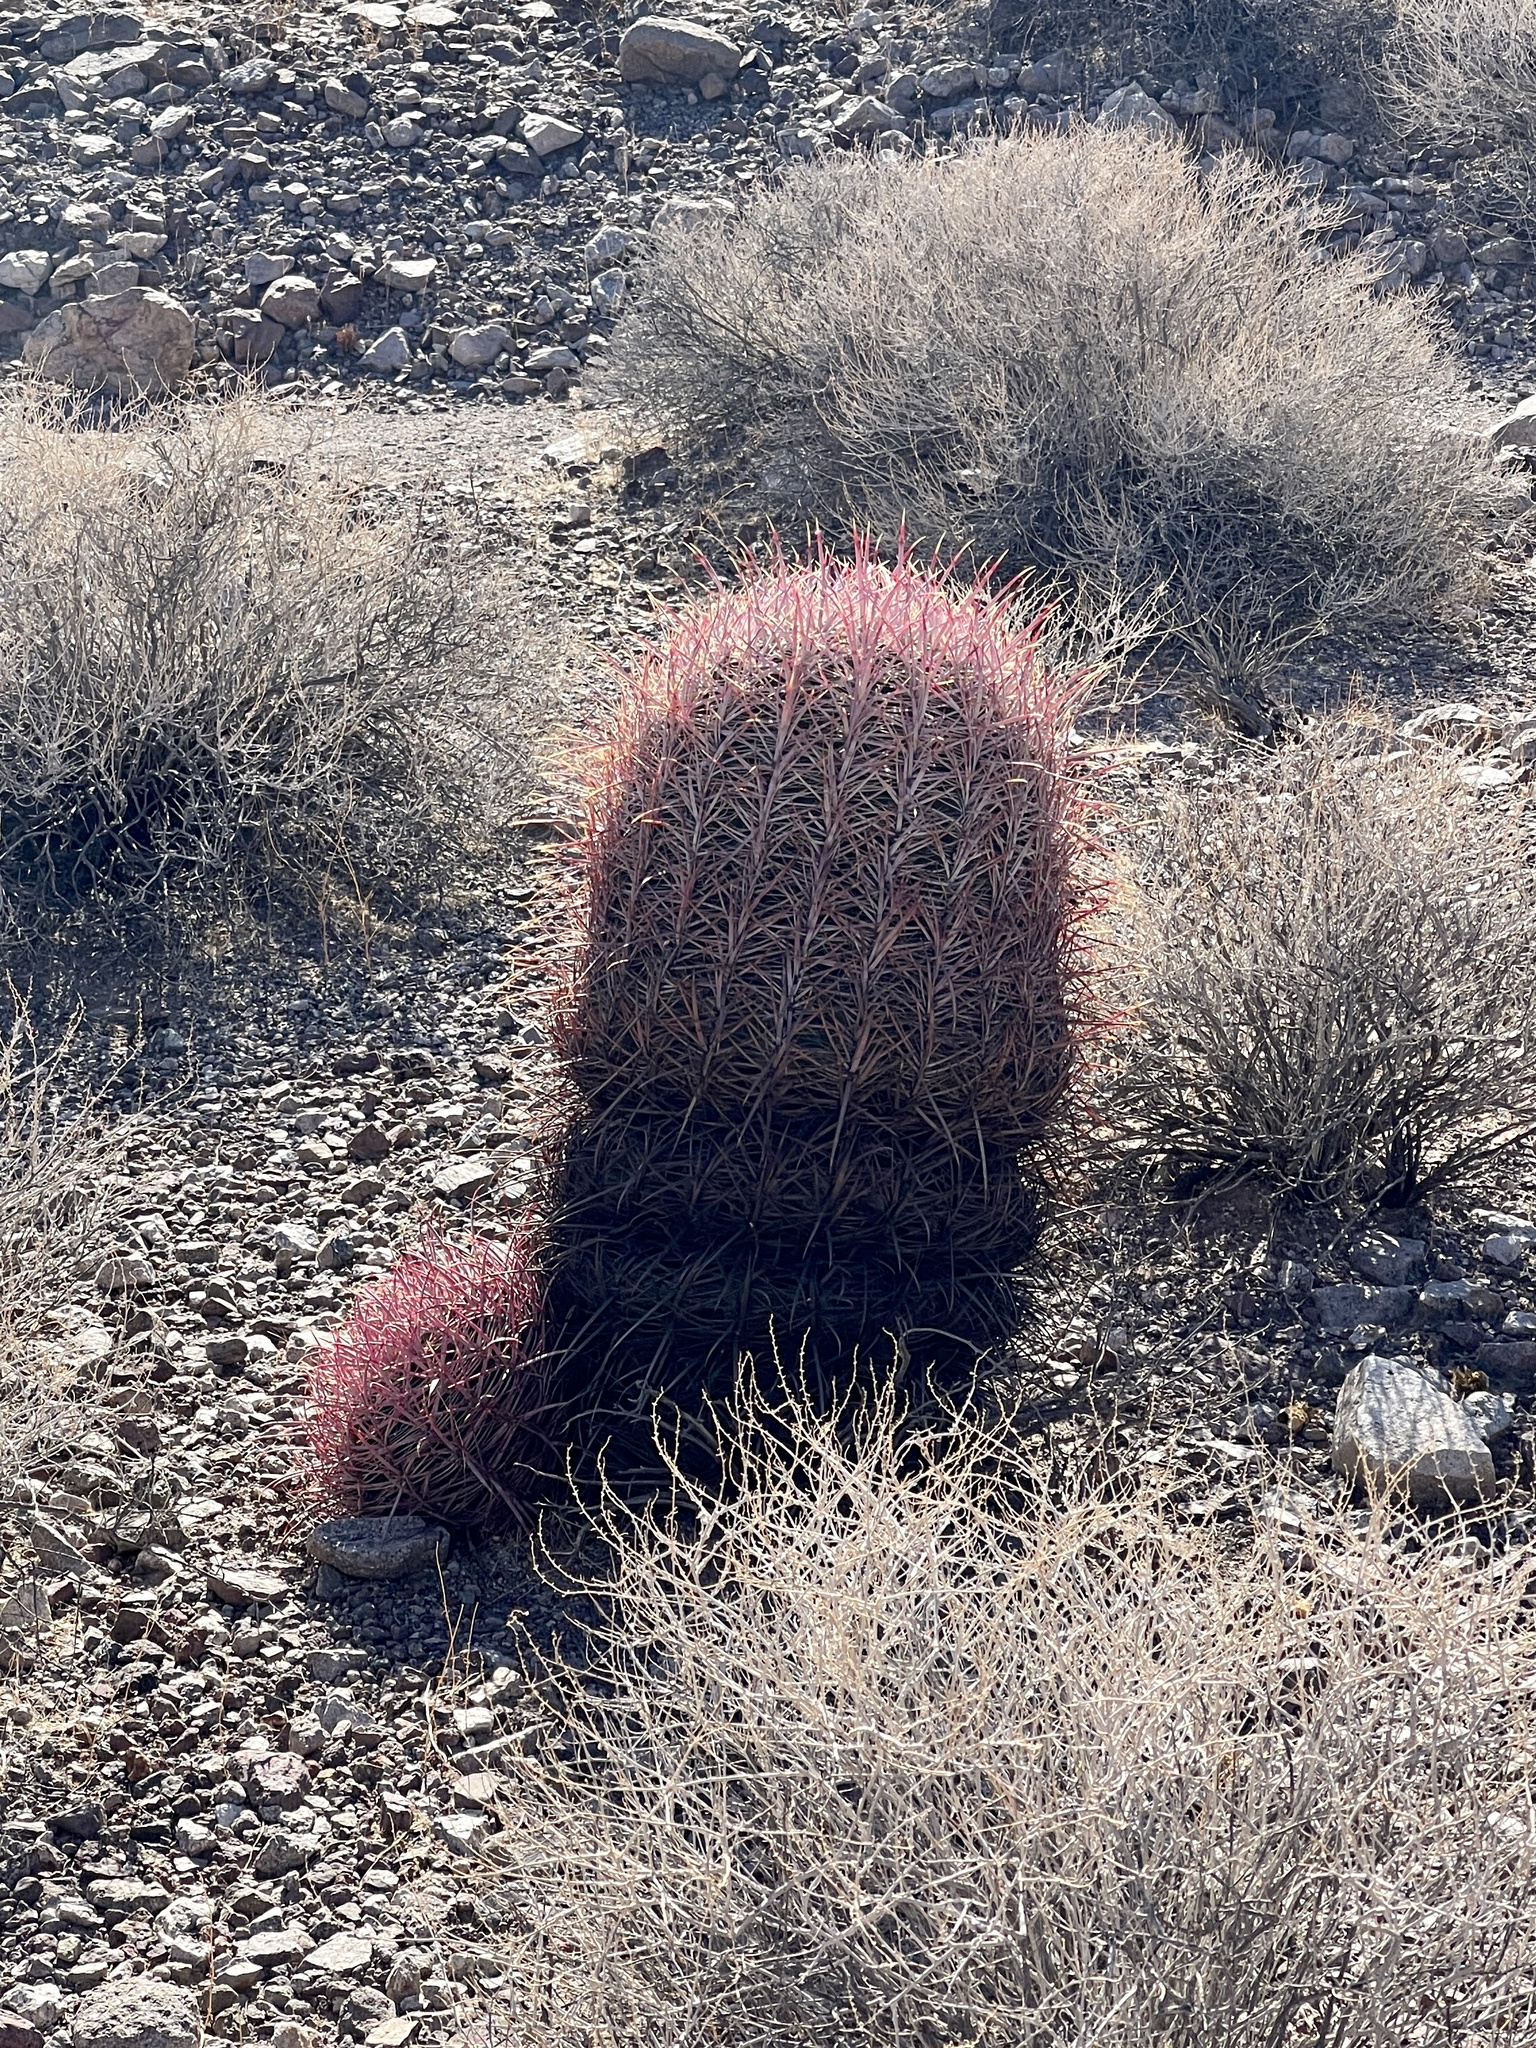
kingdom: Plantae
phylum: Tracheophyta
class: Magnoliopsida
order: Caryophyllales
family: Cactaceae
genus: Ferocactus
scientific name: Ferocactus cylindraceus
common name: California barrel cactus
